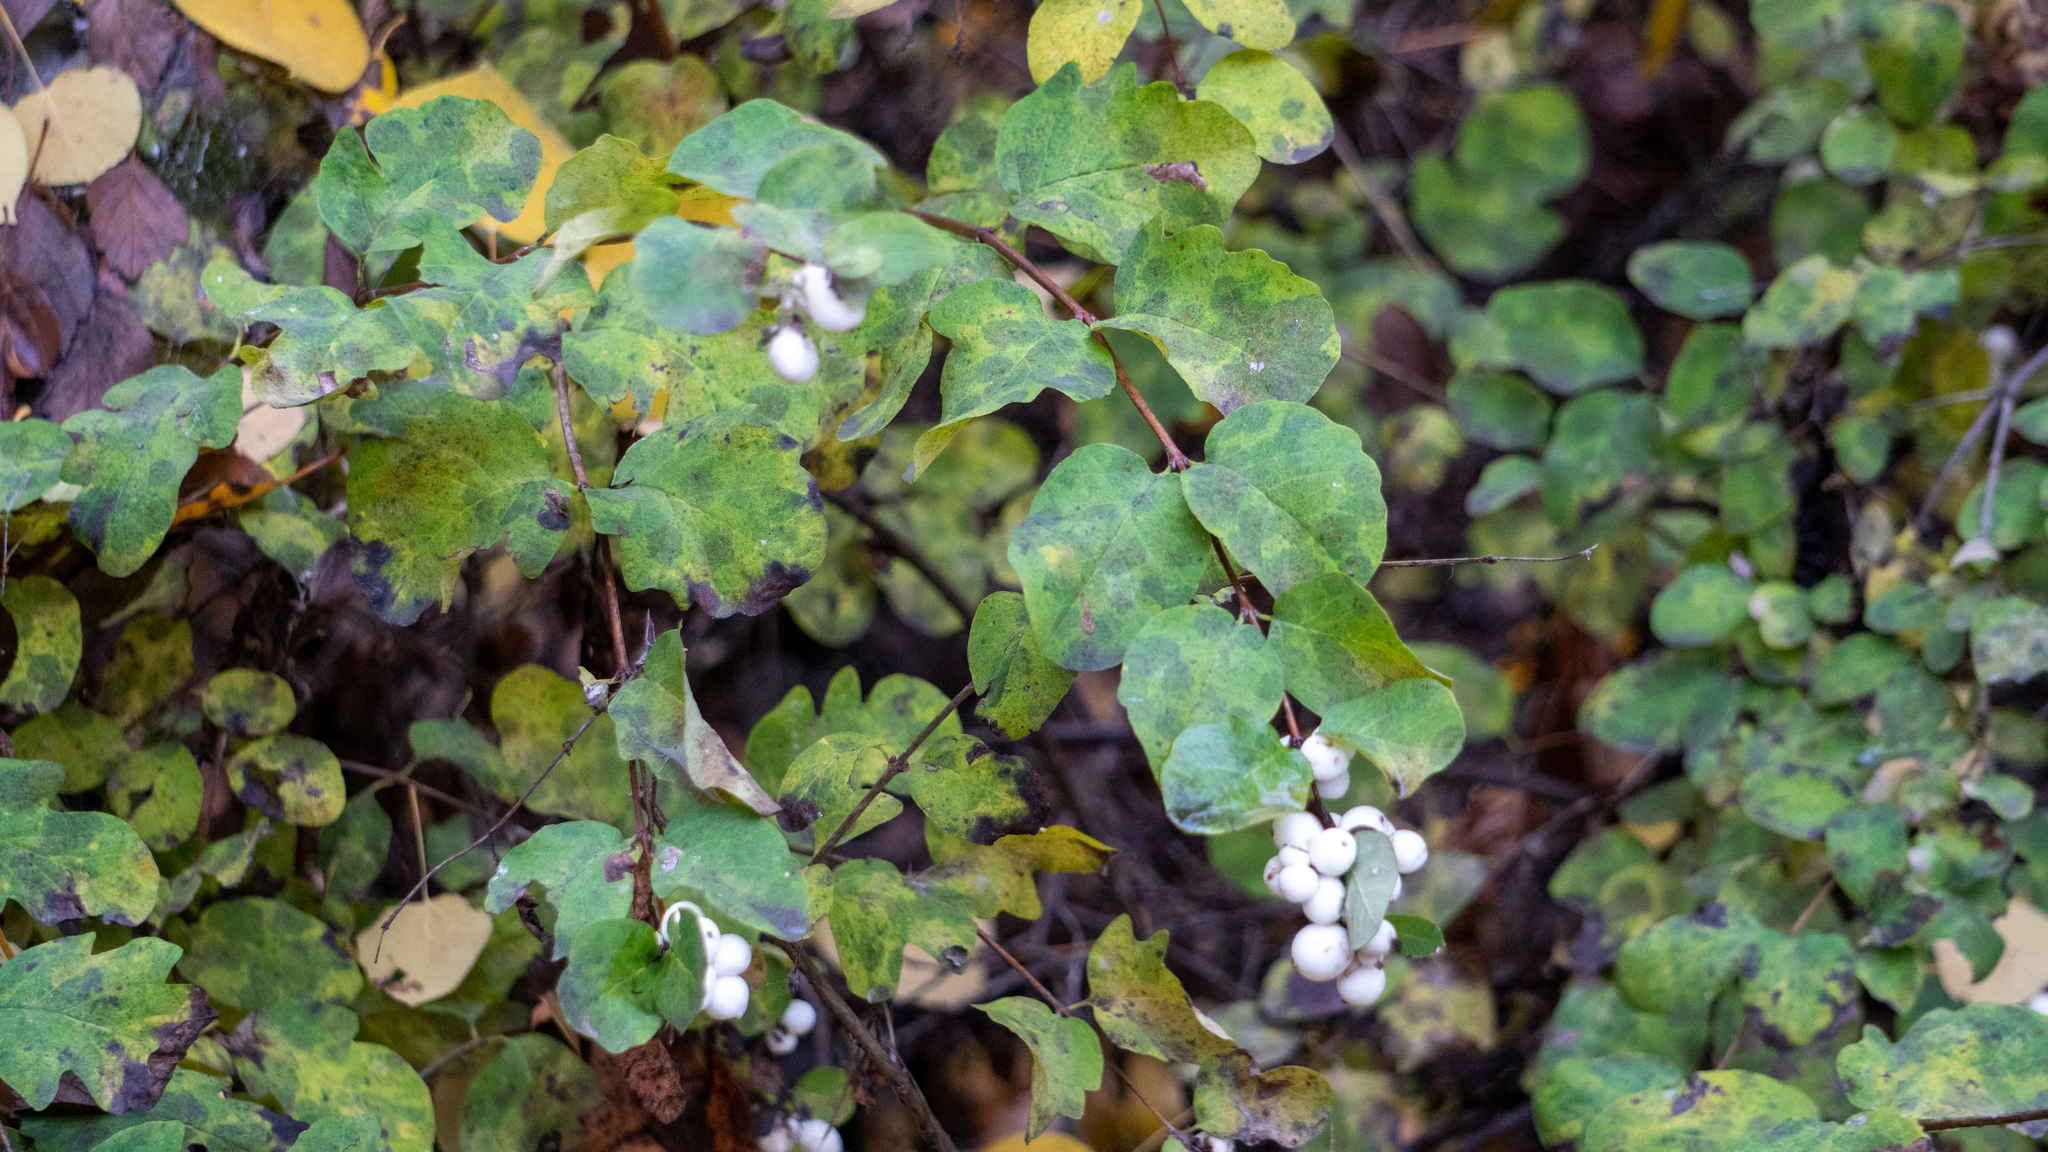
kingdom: Plantae
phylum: Tracheophyta
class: Magnoliopsida
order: Dipsacales
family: Caprifoliaceae
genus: Symphoricarpos
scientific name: Symphoricarpos albus
